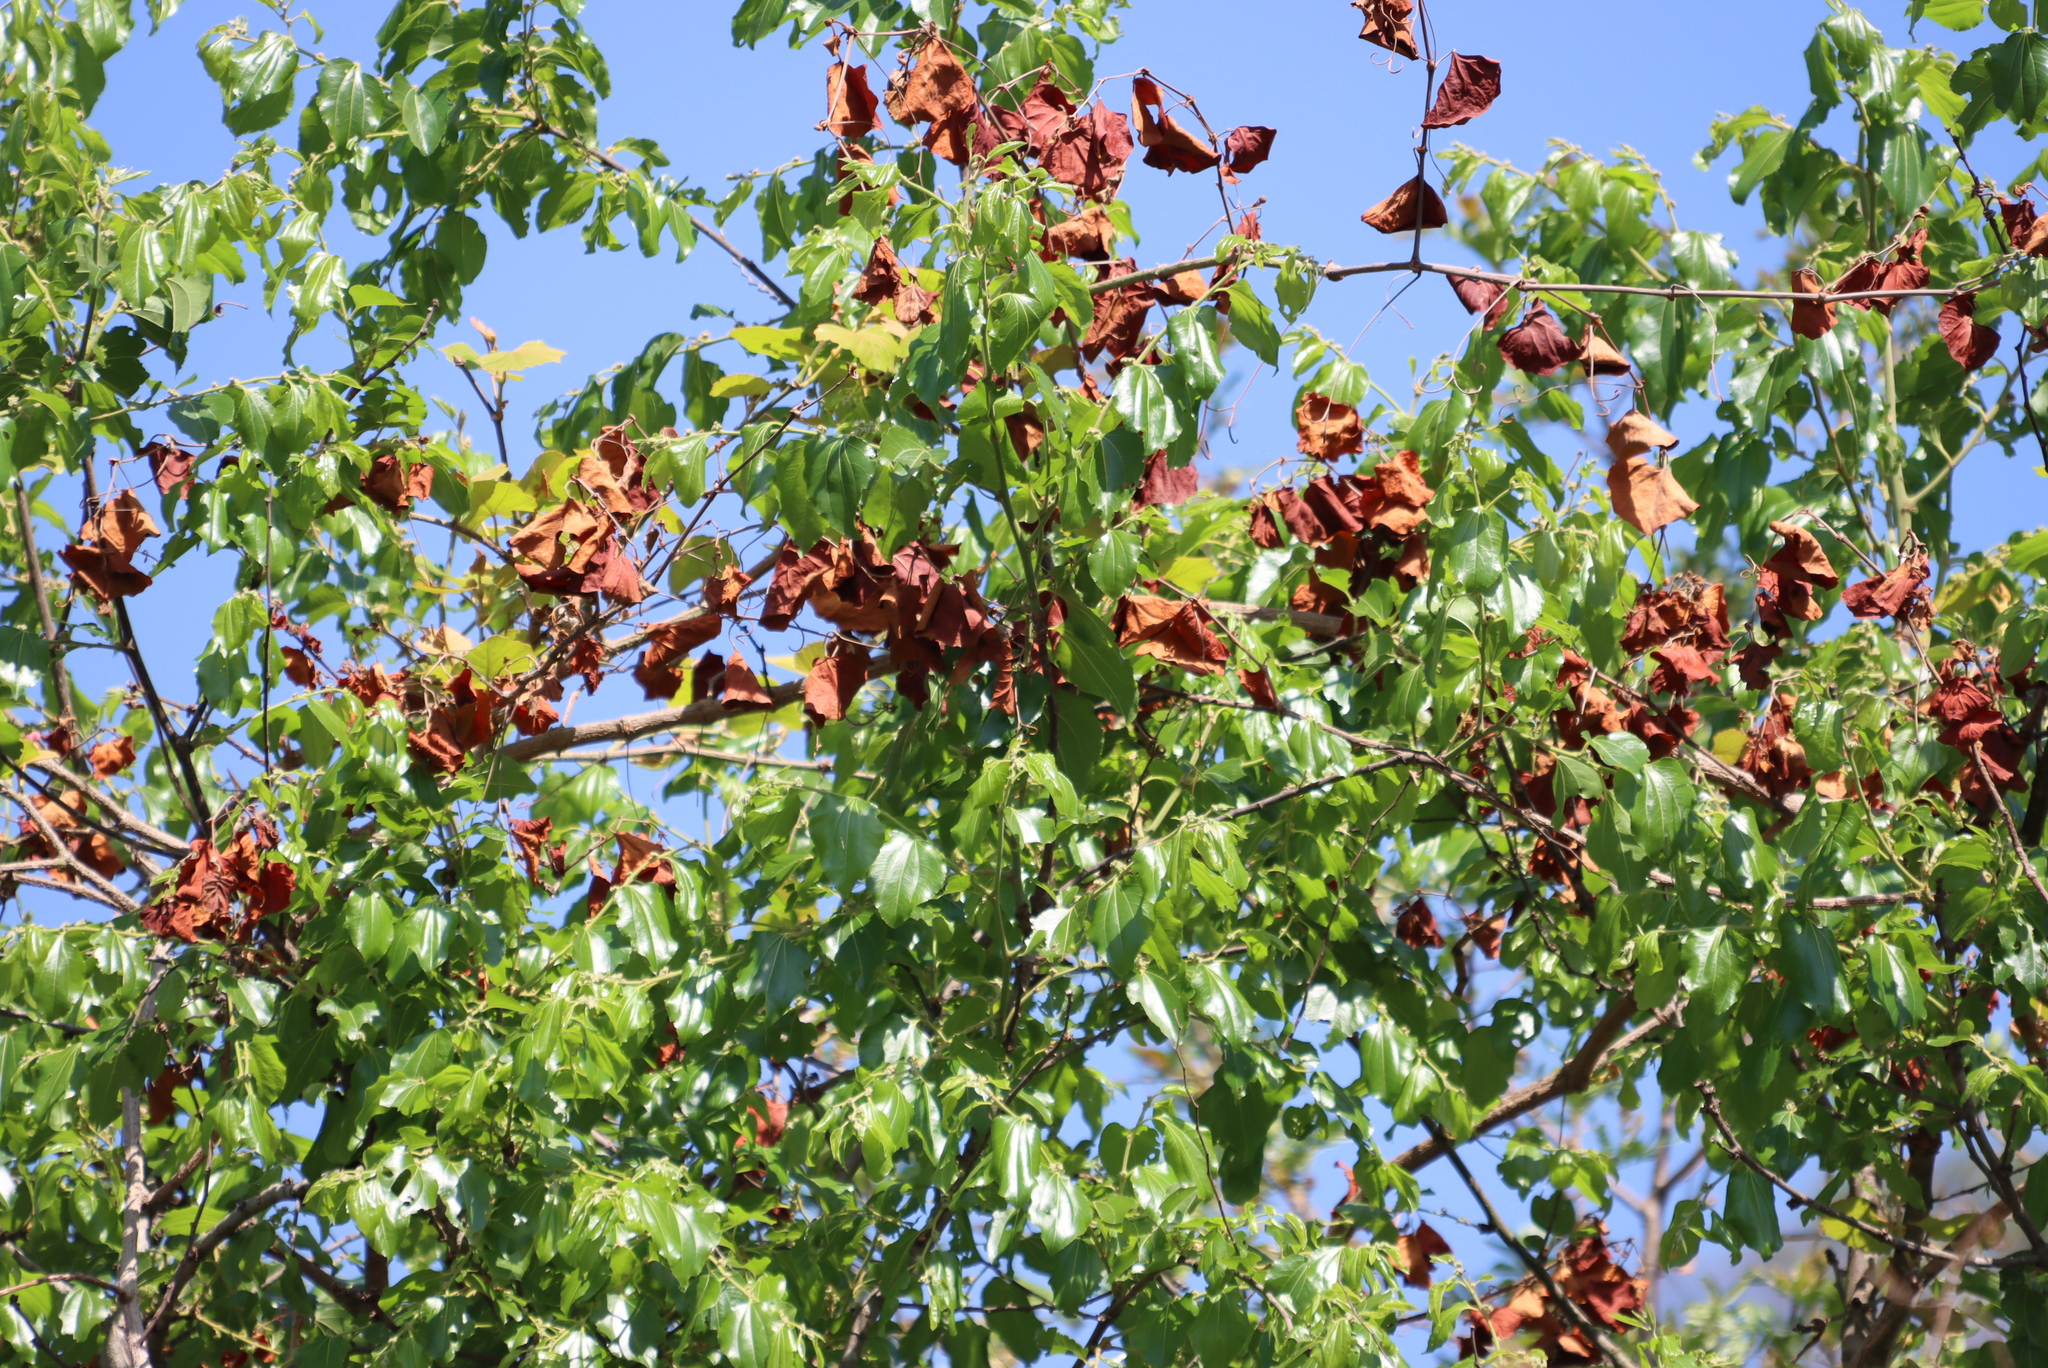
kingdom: Plantae
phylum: Tracheophyta
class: Magnoliopsida
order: Rosales
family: Rhamnaceae
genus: Ziziphus
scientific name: Ziziphus mucronata
